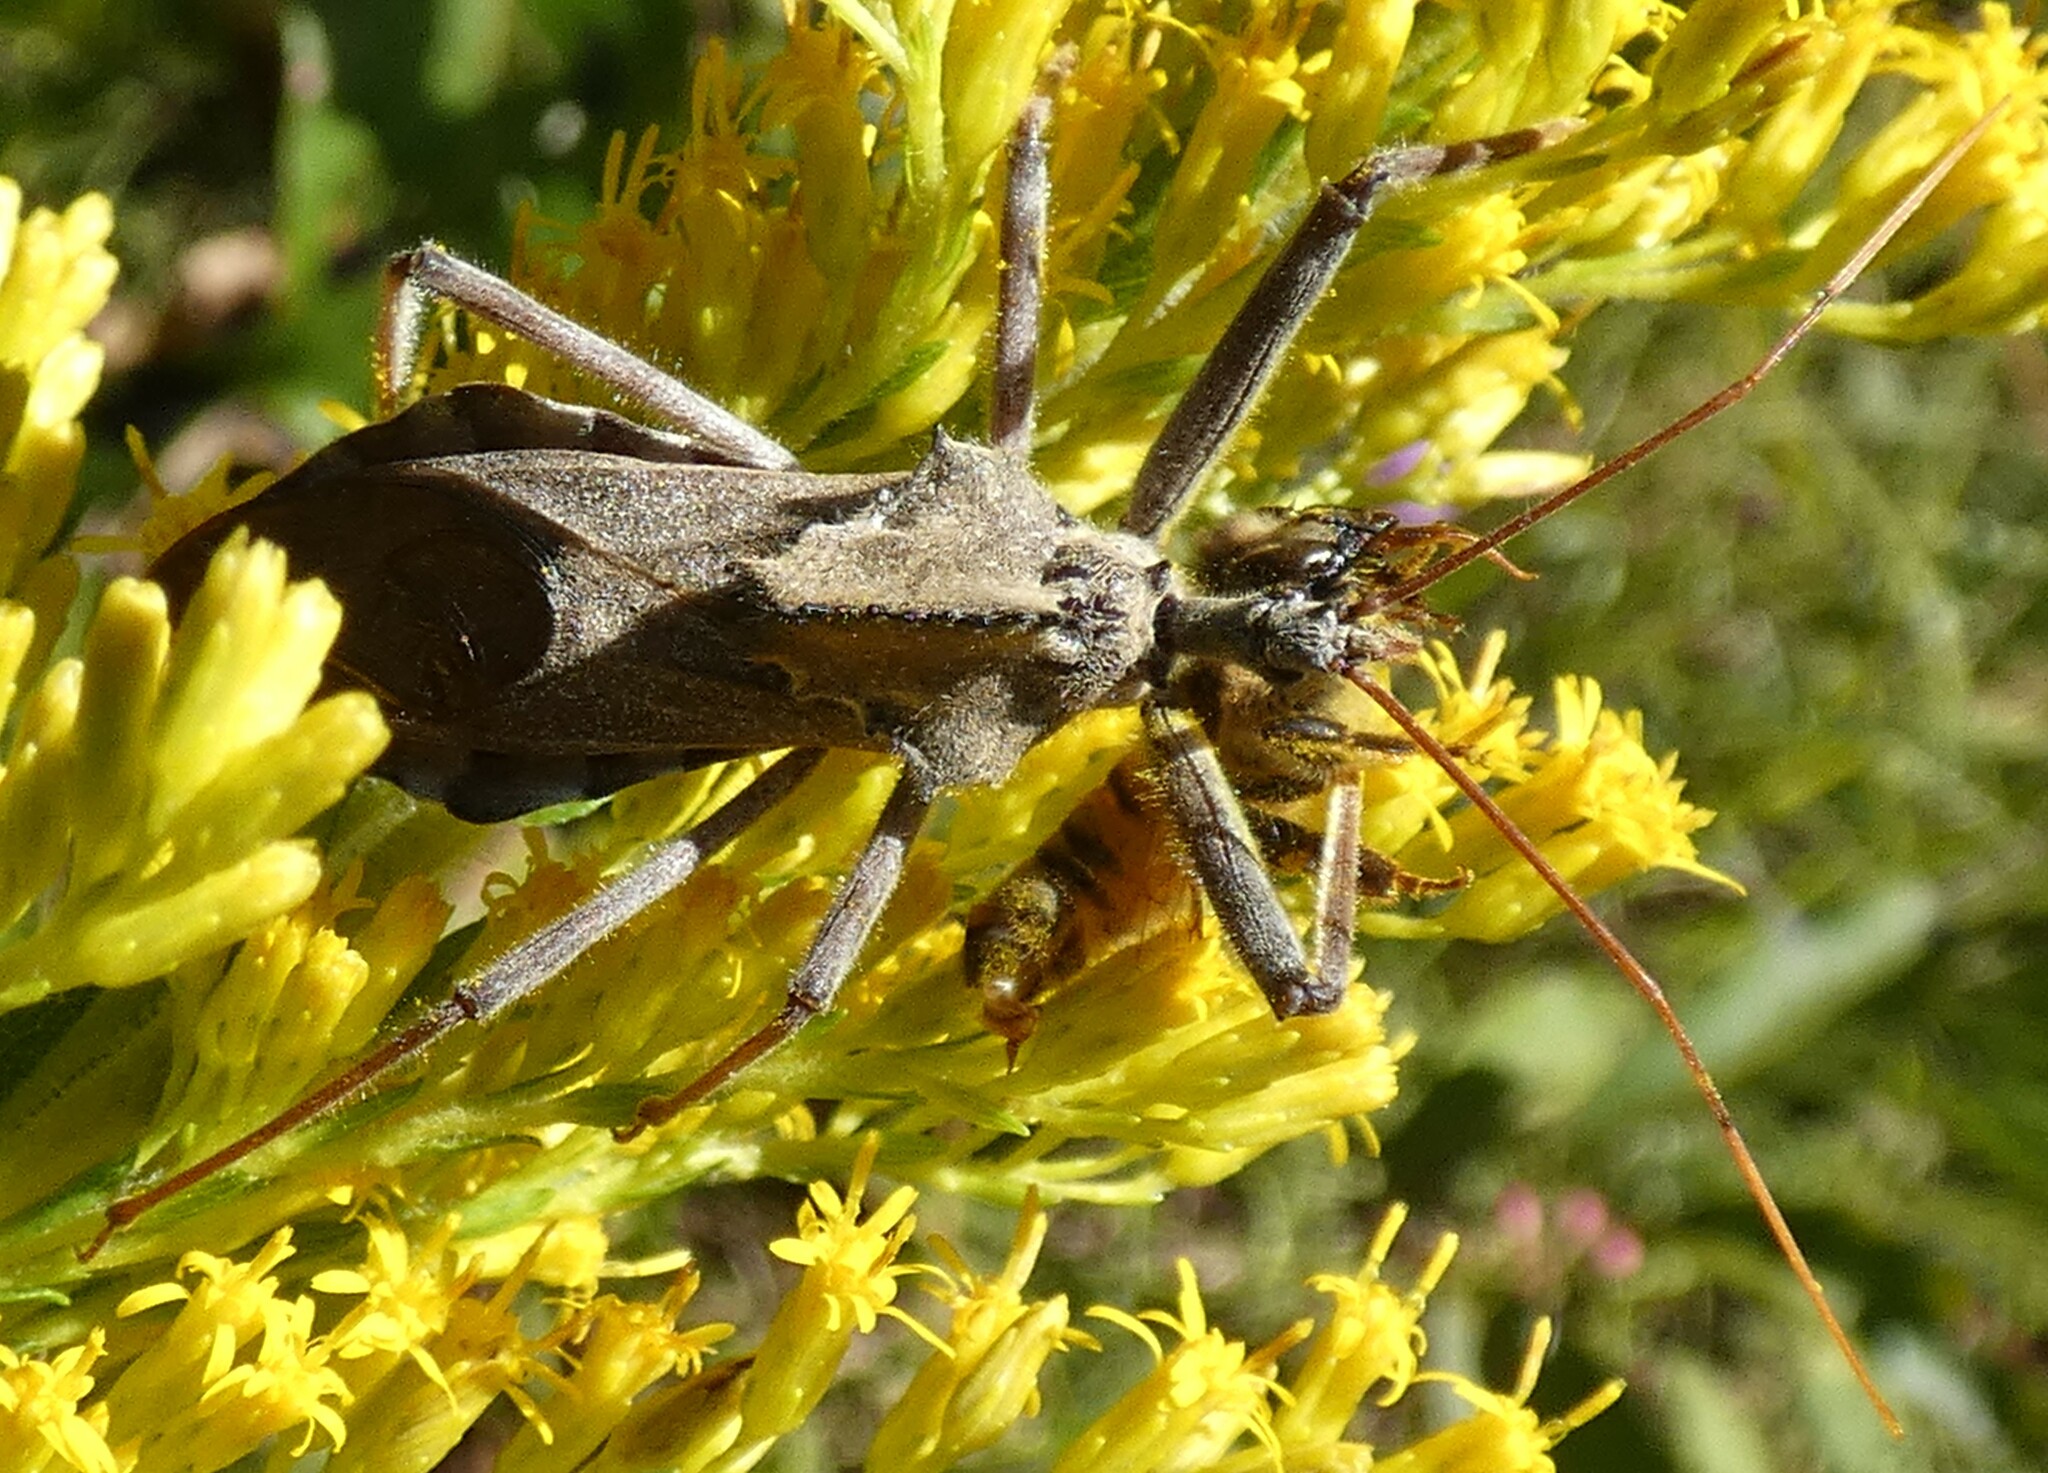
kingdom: Animalia
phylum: Arthropoda
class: Insecta
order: Hemiptera
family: Reduviidae
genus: Arilus
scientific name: Arilus cristatus
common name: North american wheel bug
